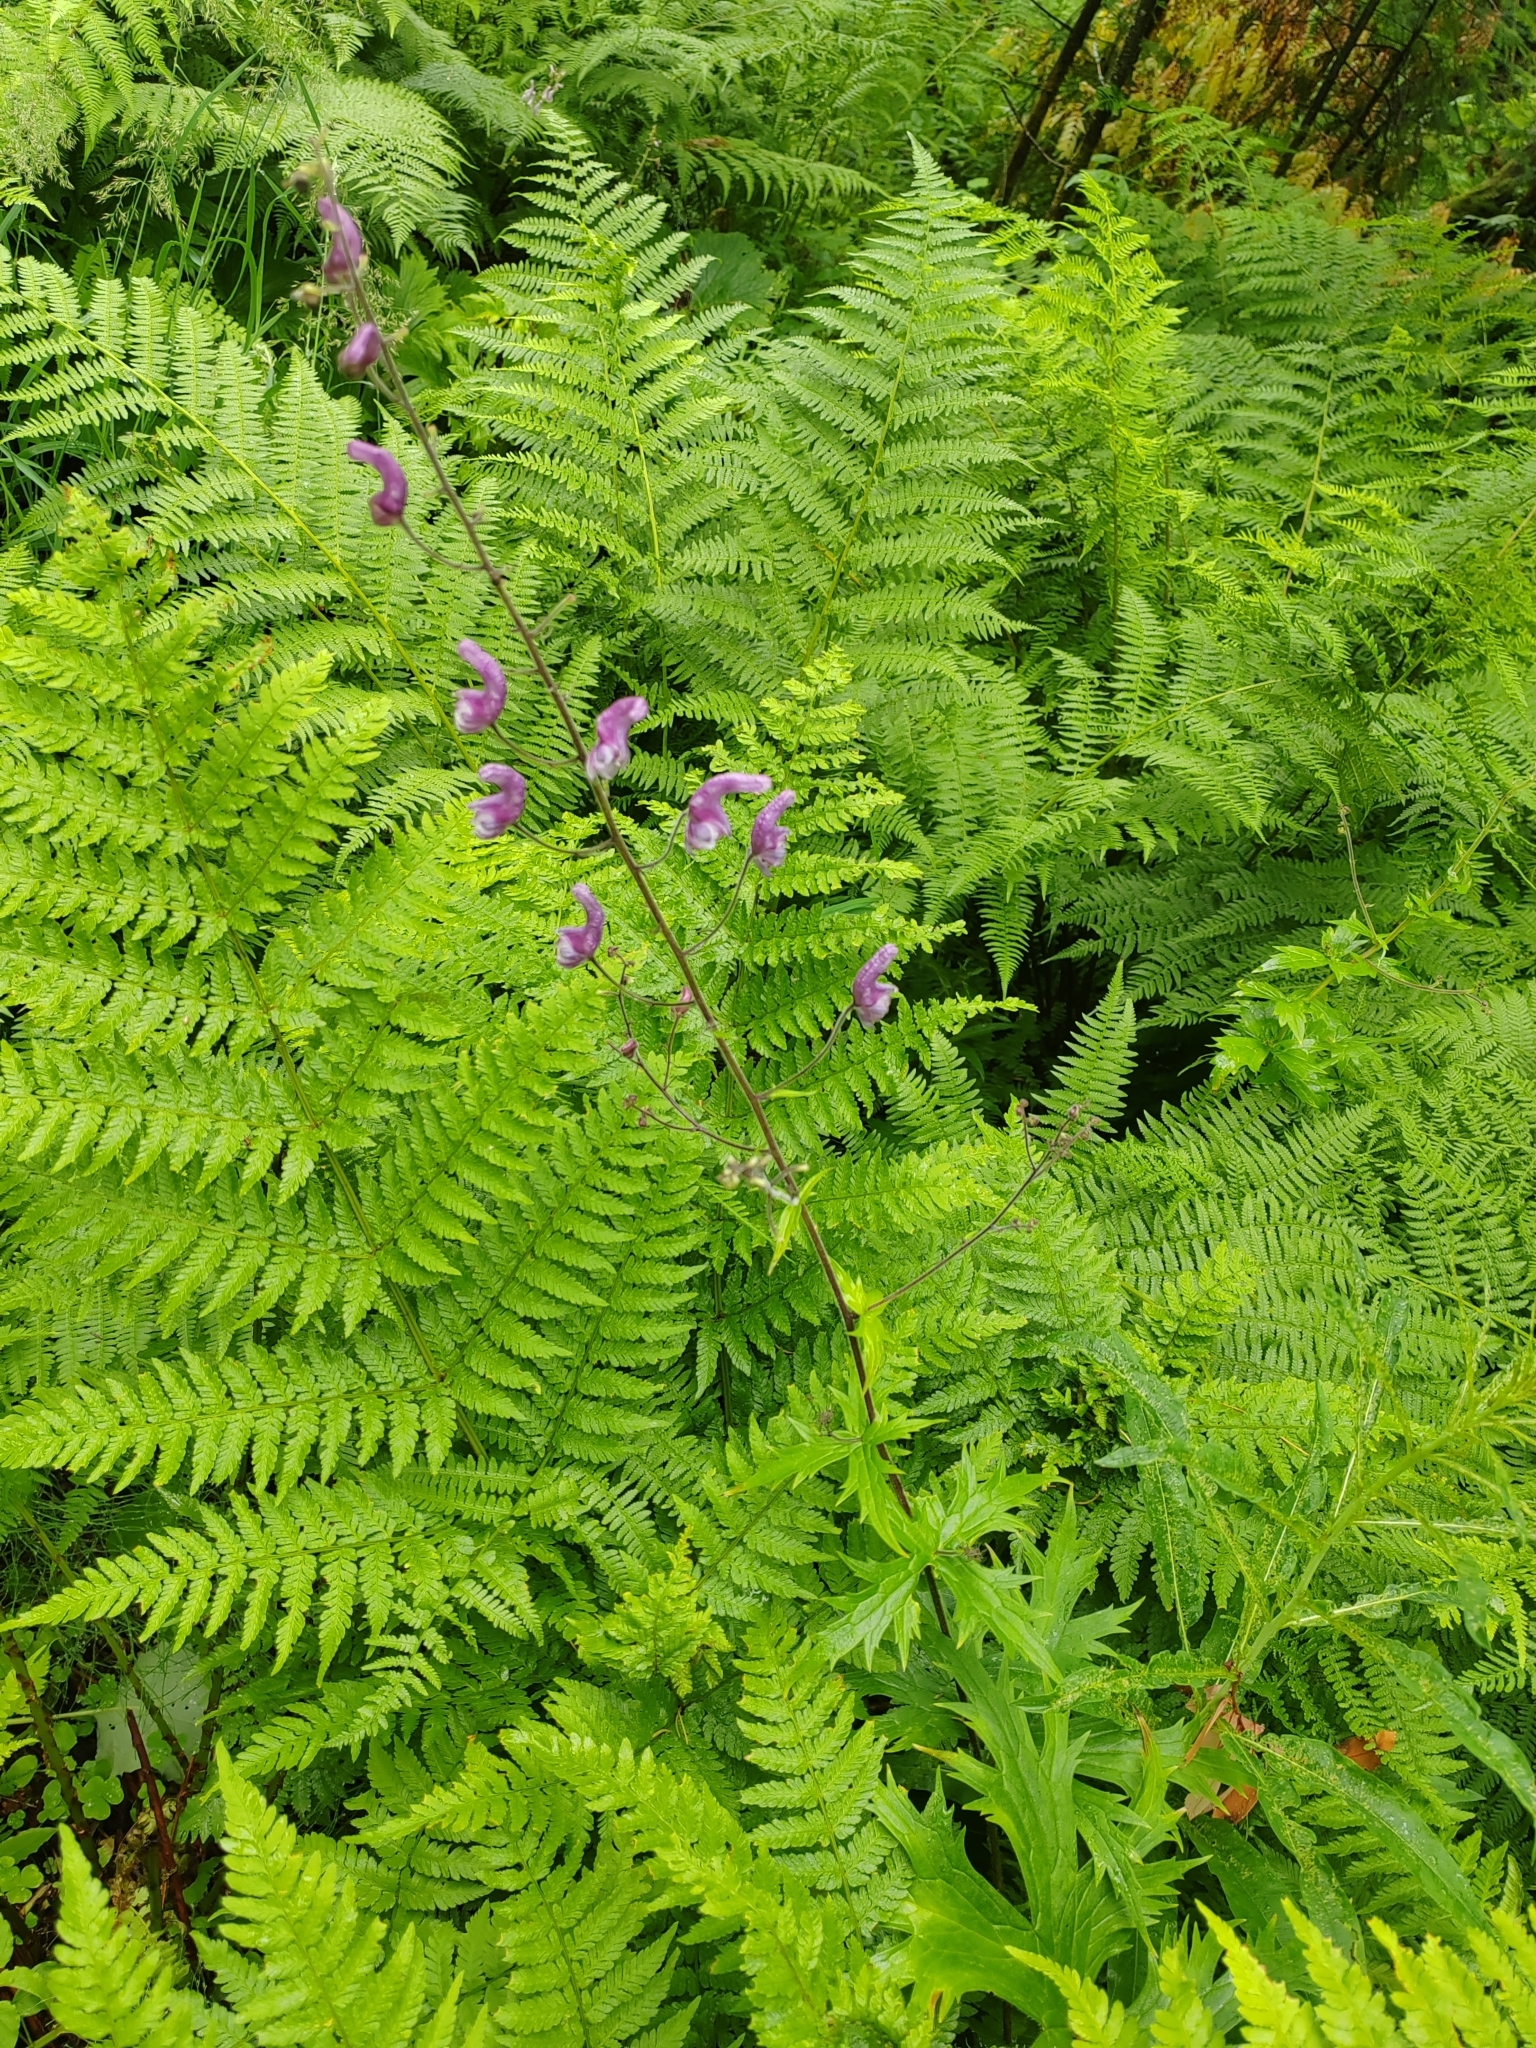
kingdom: Plantae
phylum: Tracheophyta
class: Magnoliopsida
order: Ranunculales
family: Ranunculaceae
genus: Aconitum
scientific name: Aconitum septentrionale
